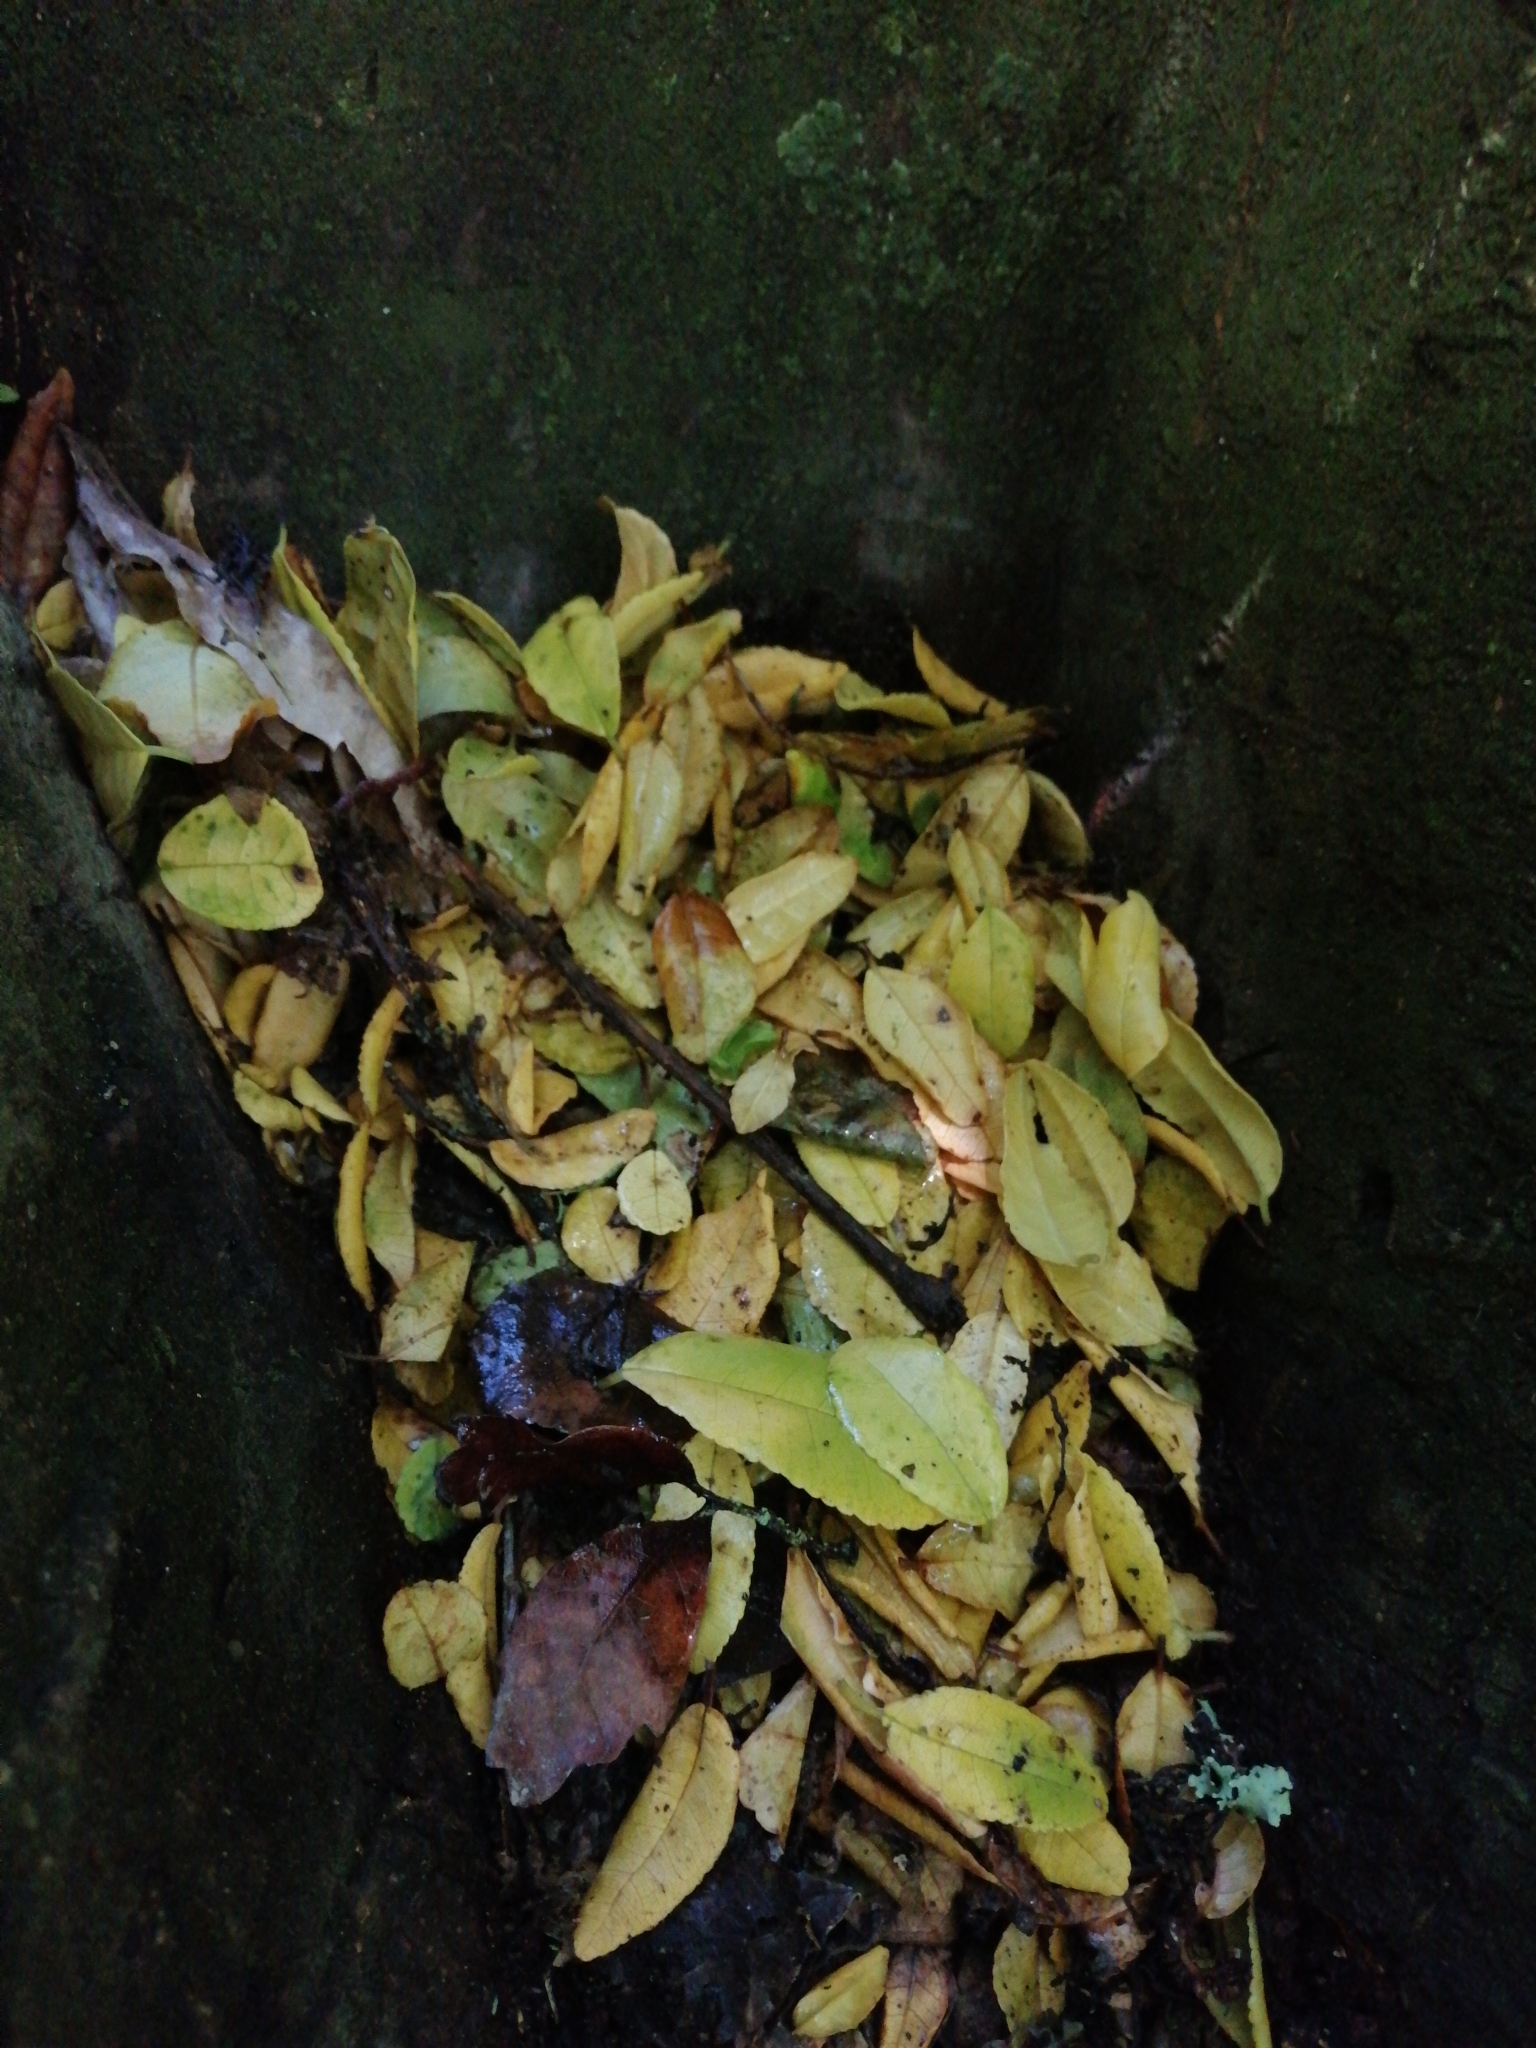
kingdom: Plantae
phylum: Tracheophyta
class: Magnoliopsida
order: Rosales
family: Moraceae
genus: Paratrophis
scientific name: Paratrophis banksii
